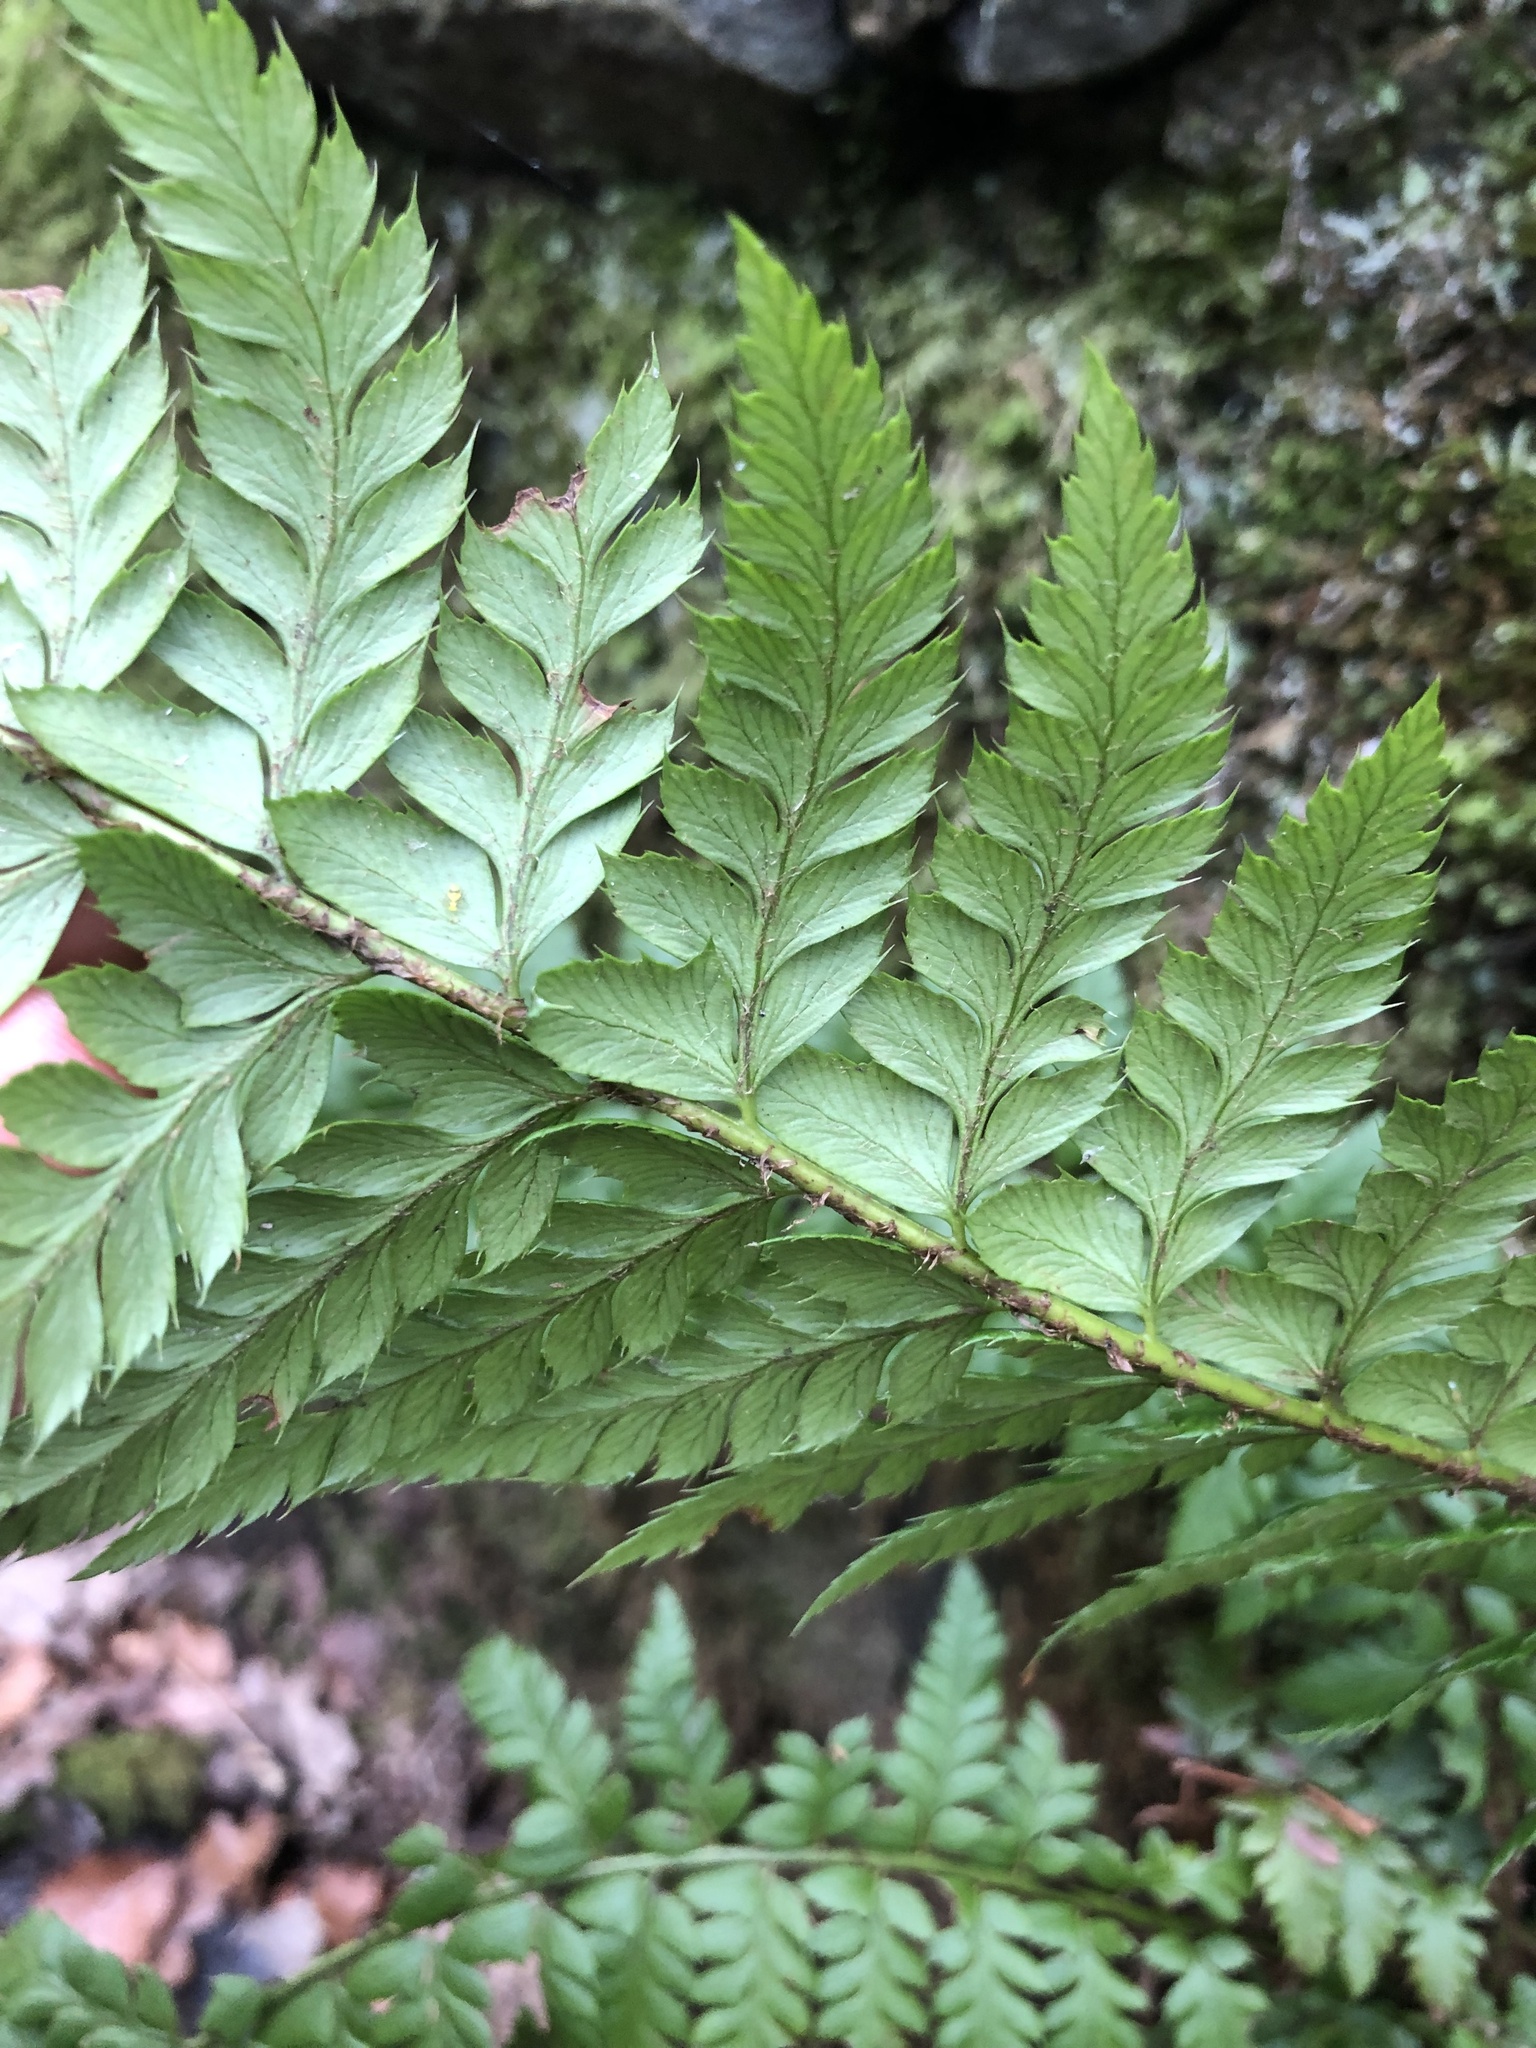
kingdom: Plantae
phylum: Tracheophyta
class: Polypodiopsida
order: Polypodiales
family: Dryopteridaceae
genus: Polystichum
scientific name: Polystichum aculeatum
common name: Hard shield-fern
